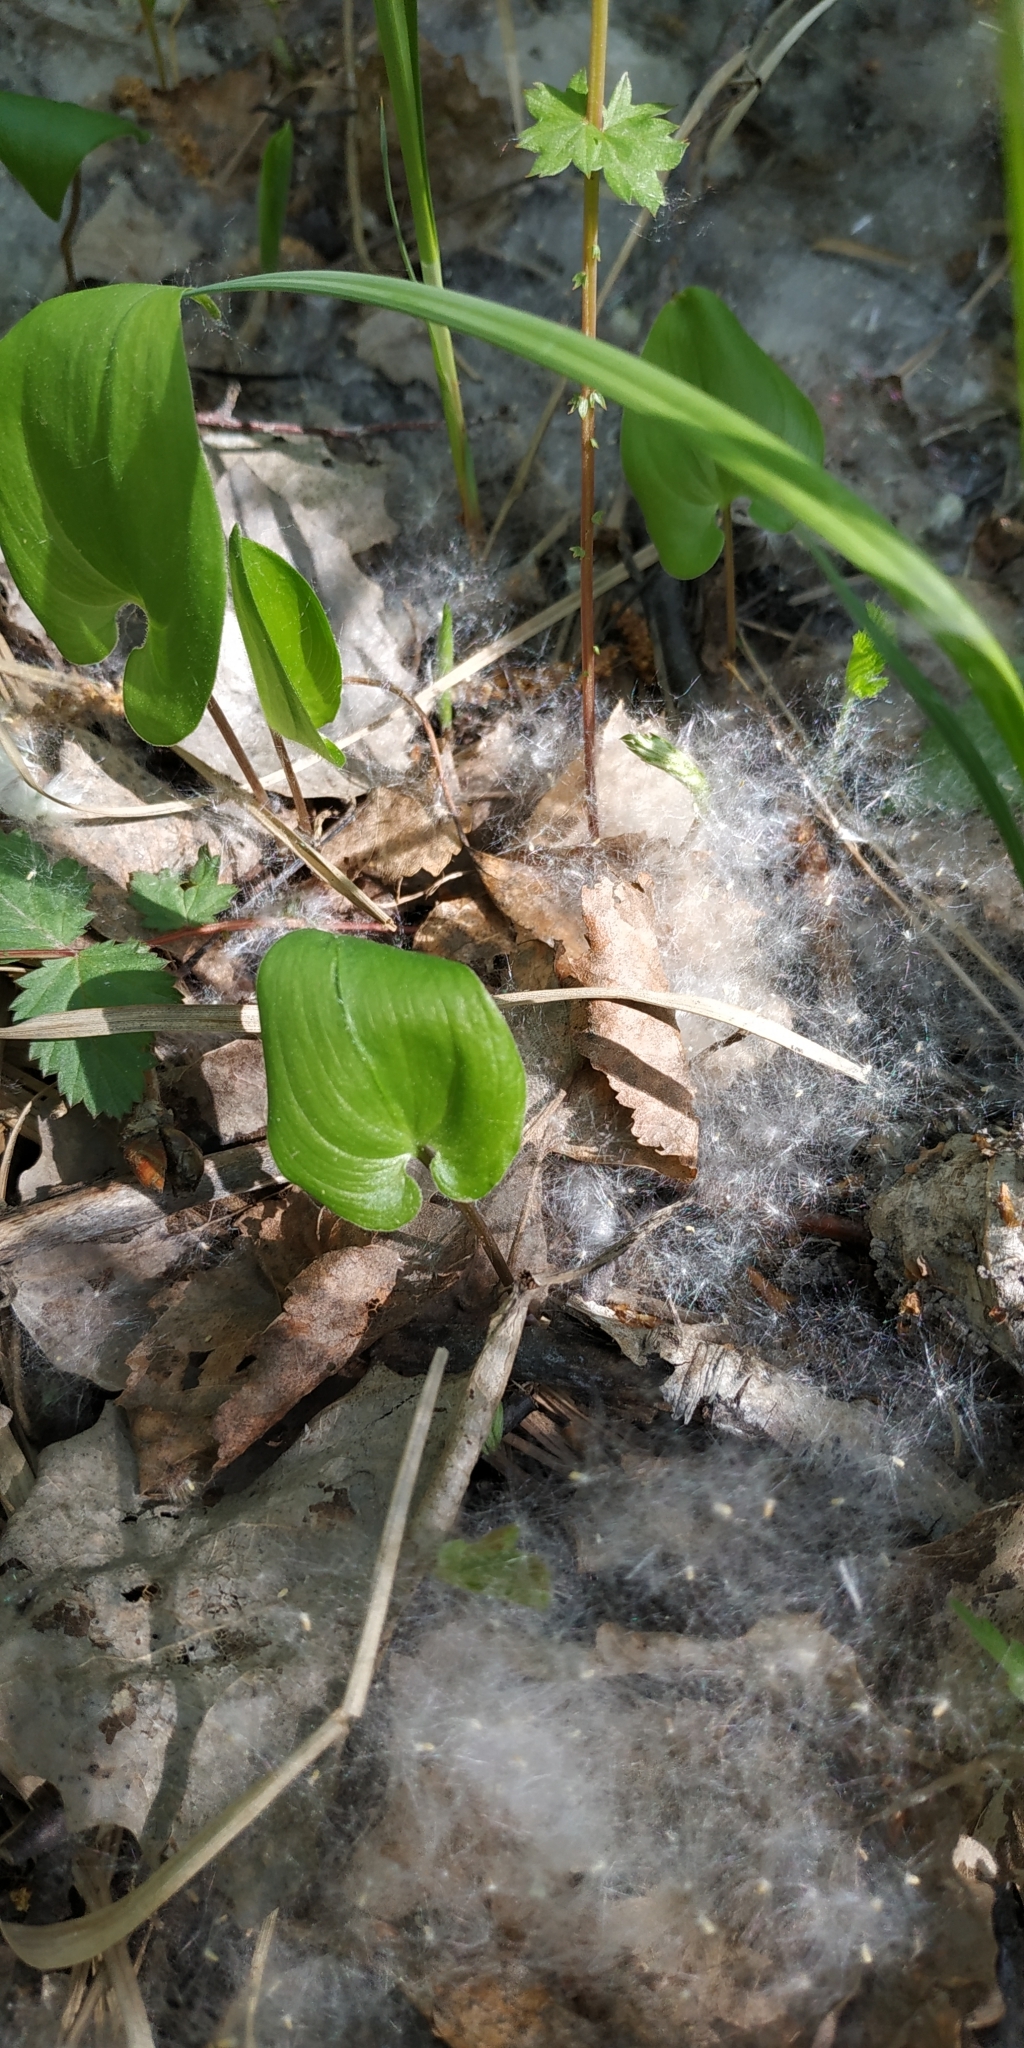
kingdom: Plantae
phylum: Tracheophyta
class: Liliopsida
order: Asparagales
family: Asparagaceae
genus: Maianthemum
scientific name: Maianthemum bifolium
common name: May lily
